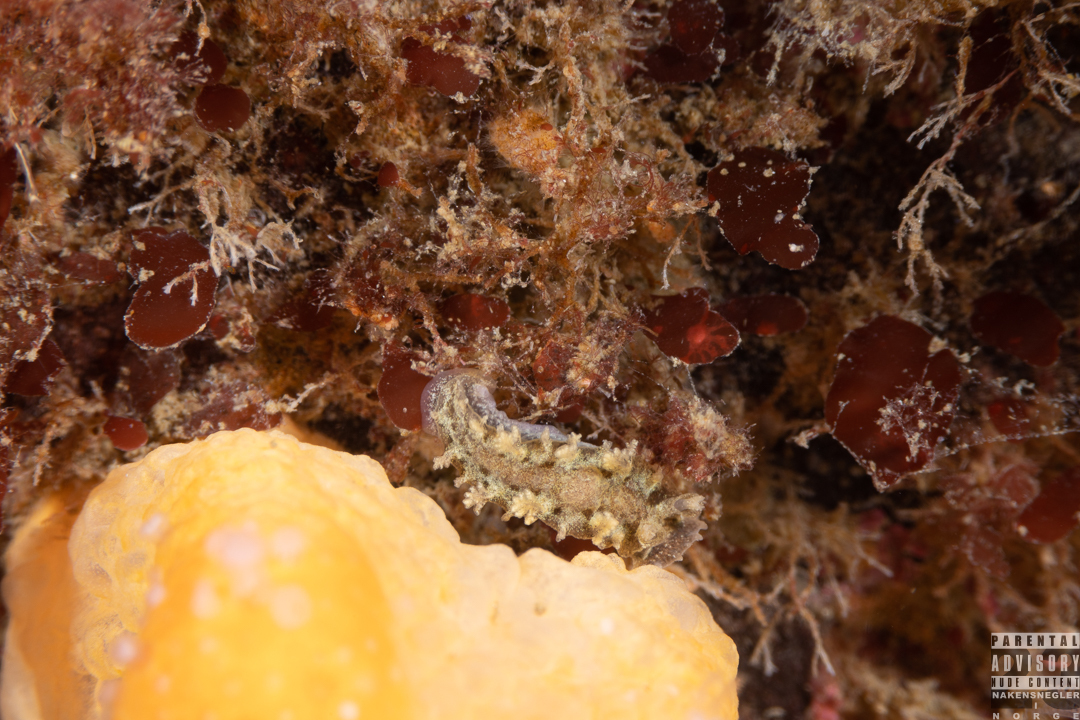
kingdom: Animalia
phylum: Mollusca
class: Gastropoda
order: Nudibranchia
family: Tritoniidae
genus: Duvaucelia
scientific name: Duvaucelia plebeia
